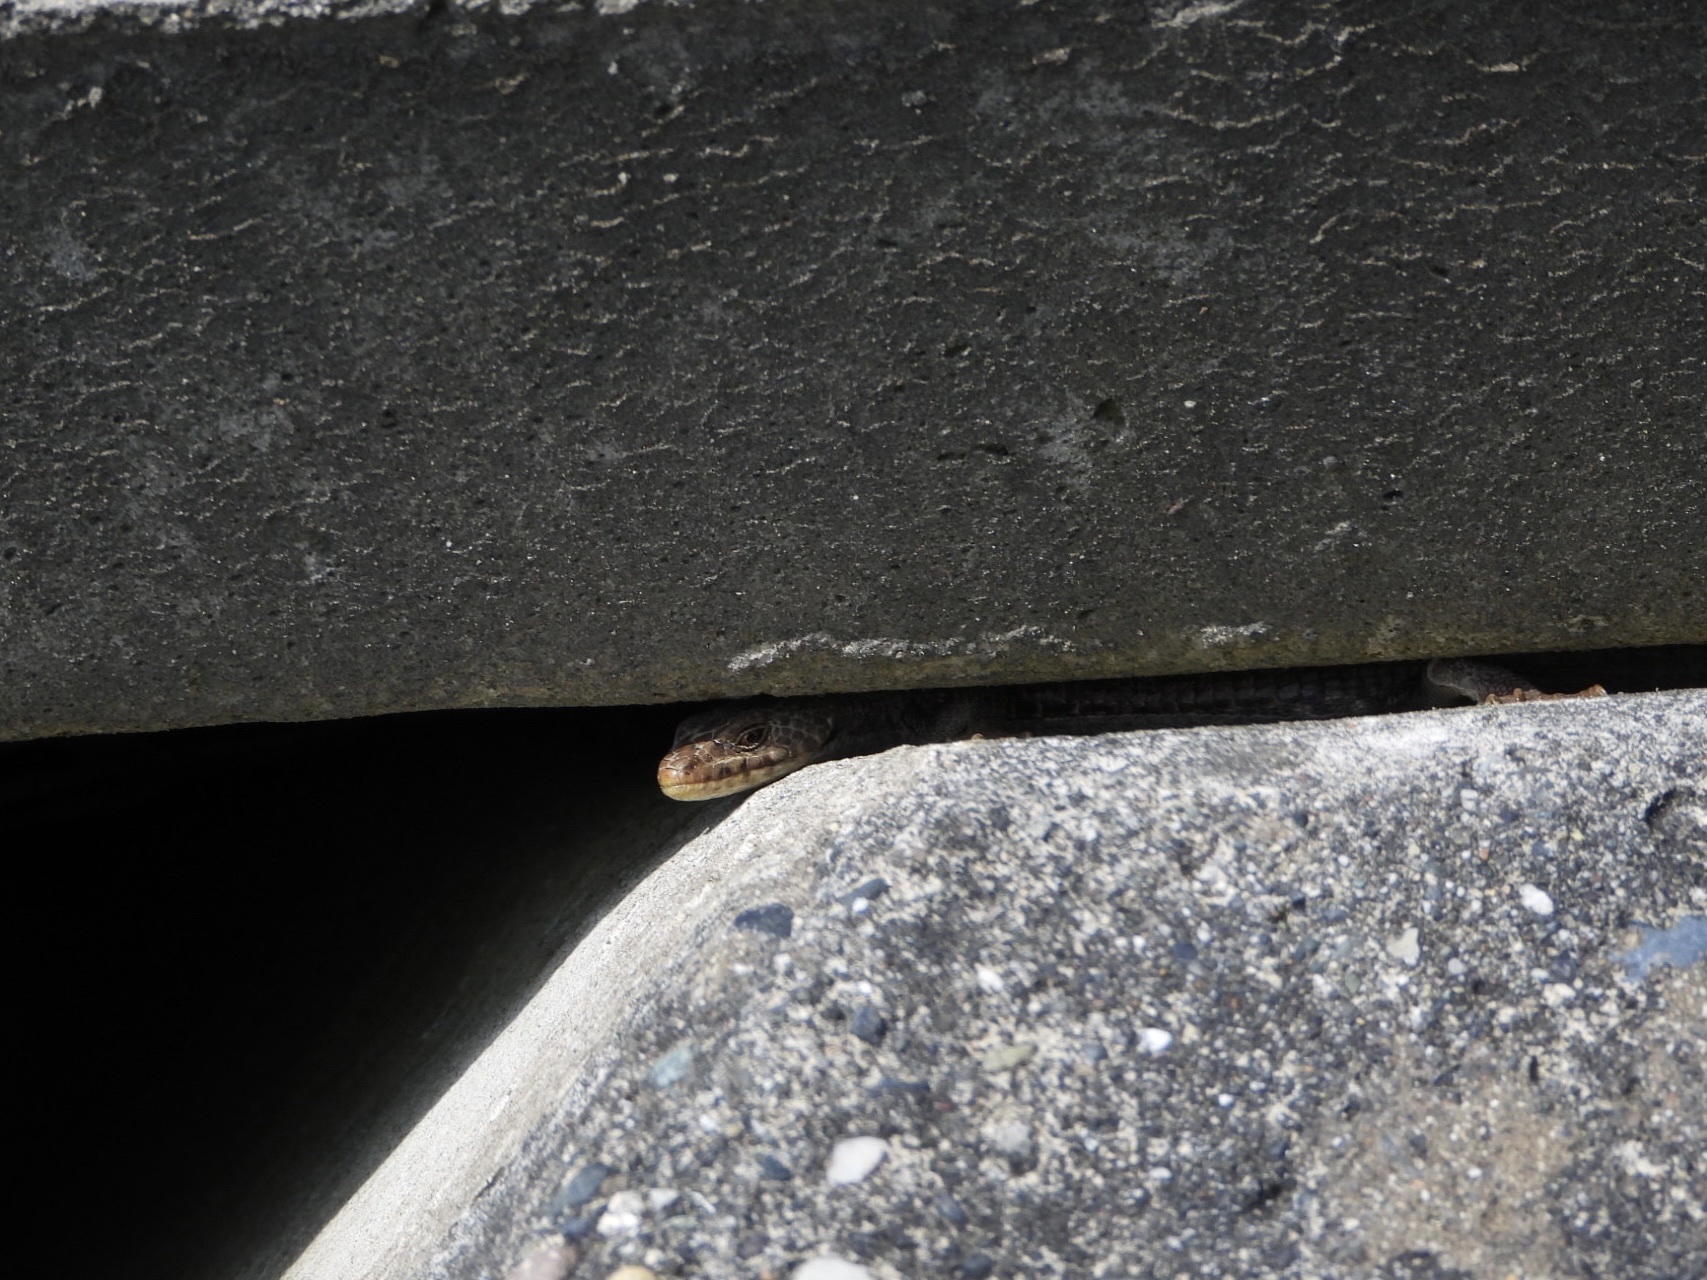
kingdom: Animalia
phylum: Chordata
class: Squamata
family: Anguidae
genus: Elgaria
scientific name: Elgaria coerulea
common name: Northern alligator lizard
